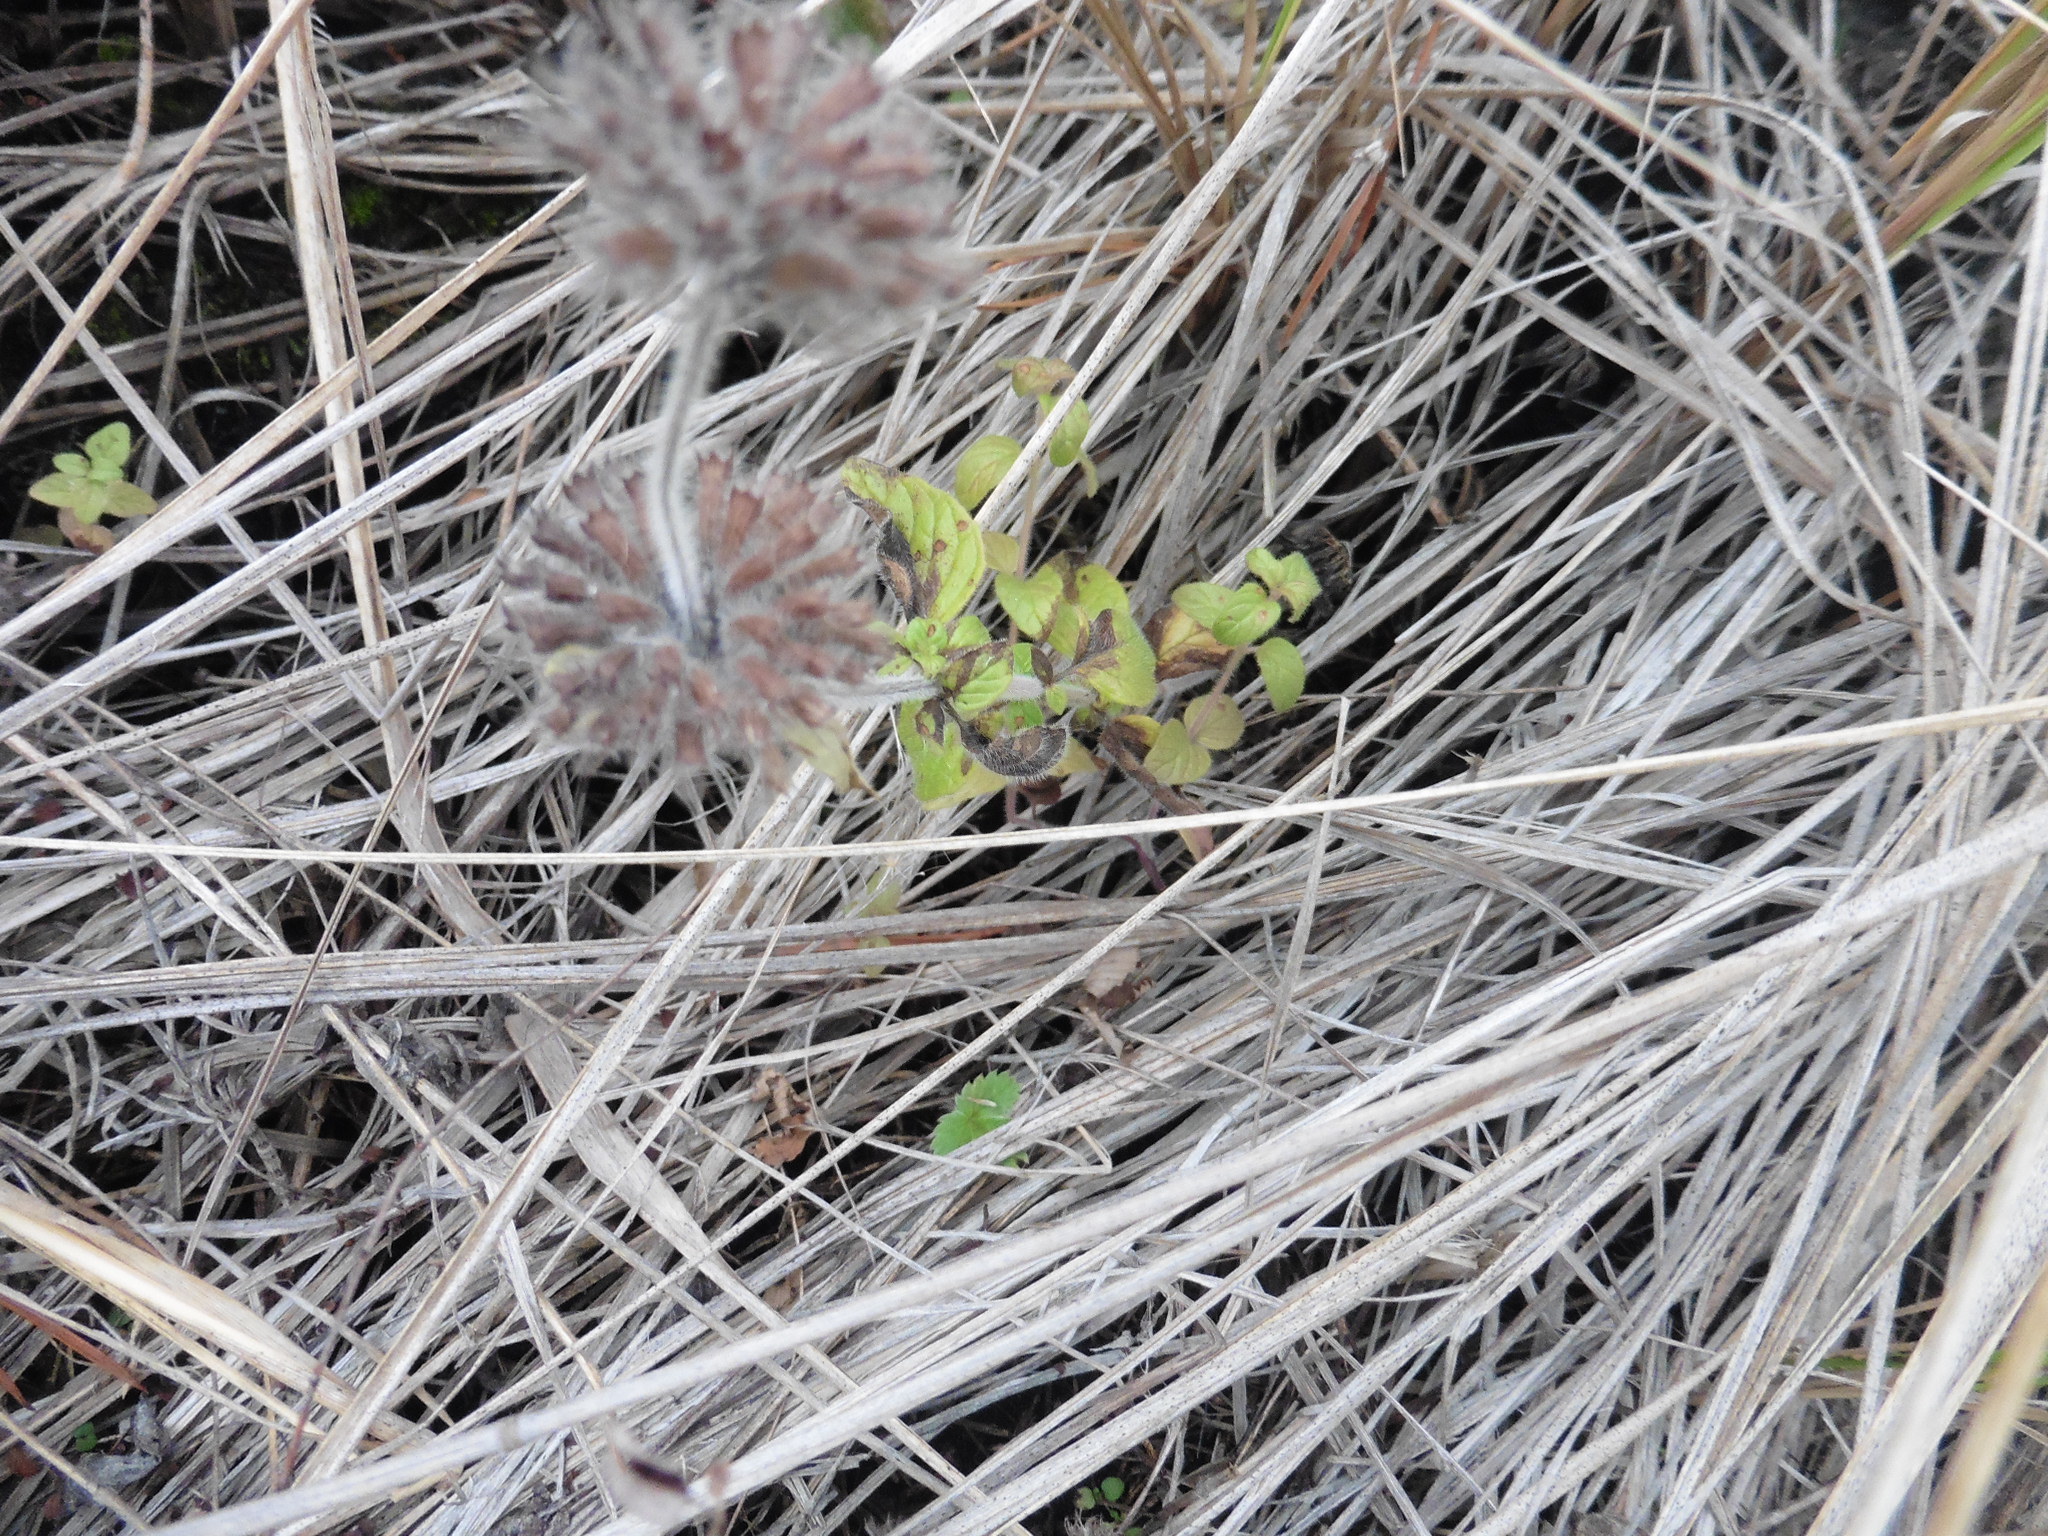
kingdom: Plantae
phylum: Tracheophyta
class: Magnoliopsida
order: Lamiales
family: Lamiaceae
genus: Clinopodium
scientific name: Clinopodium vulgare
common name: Wild basil
